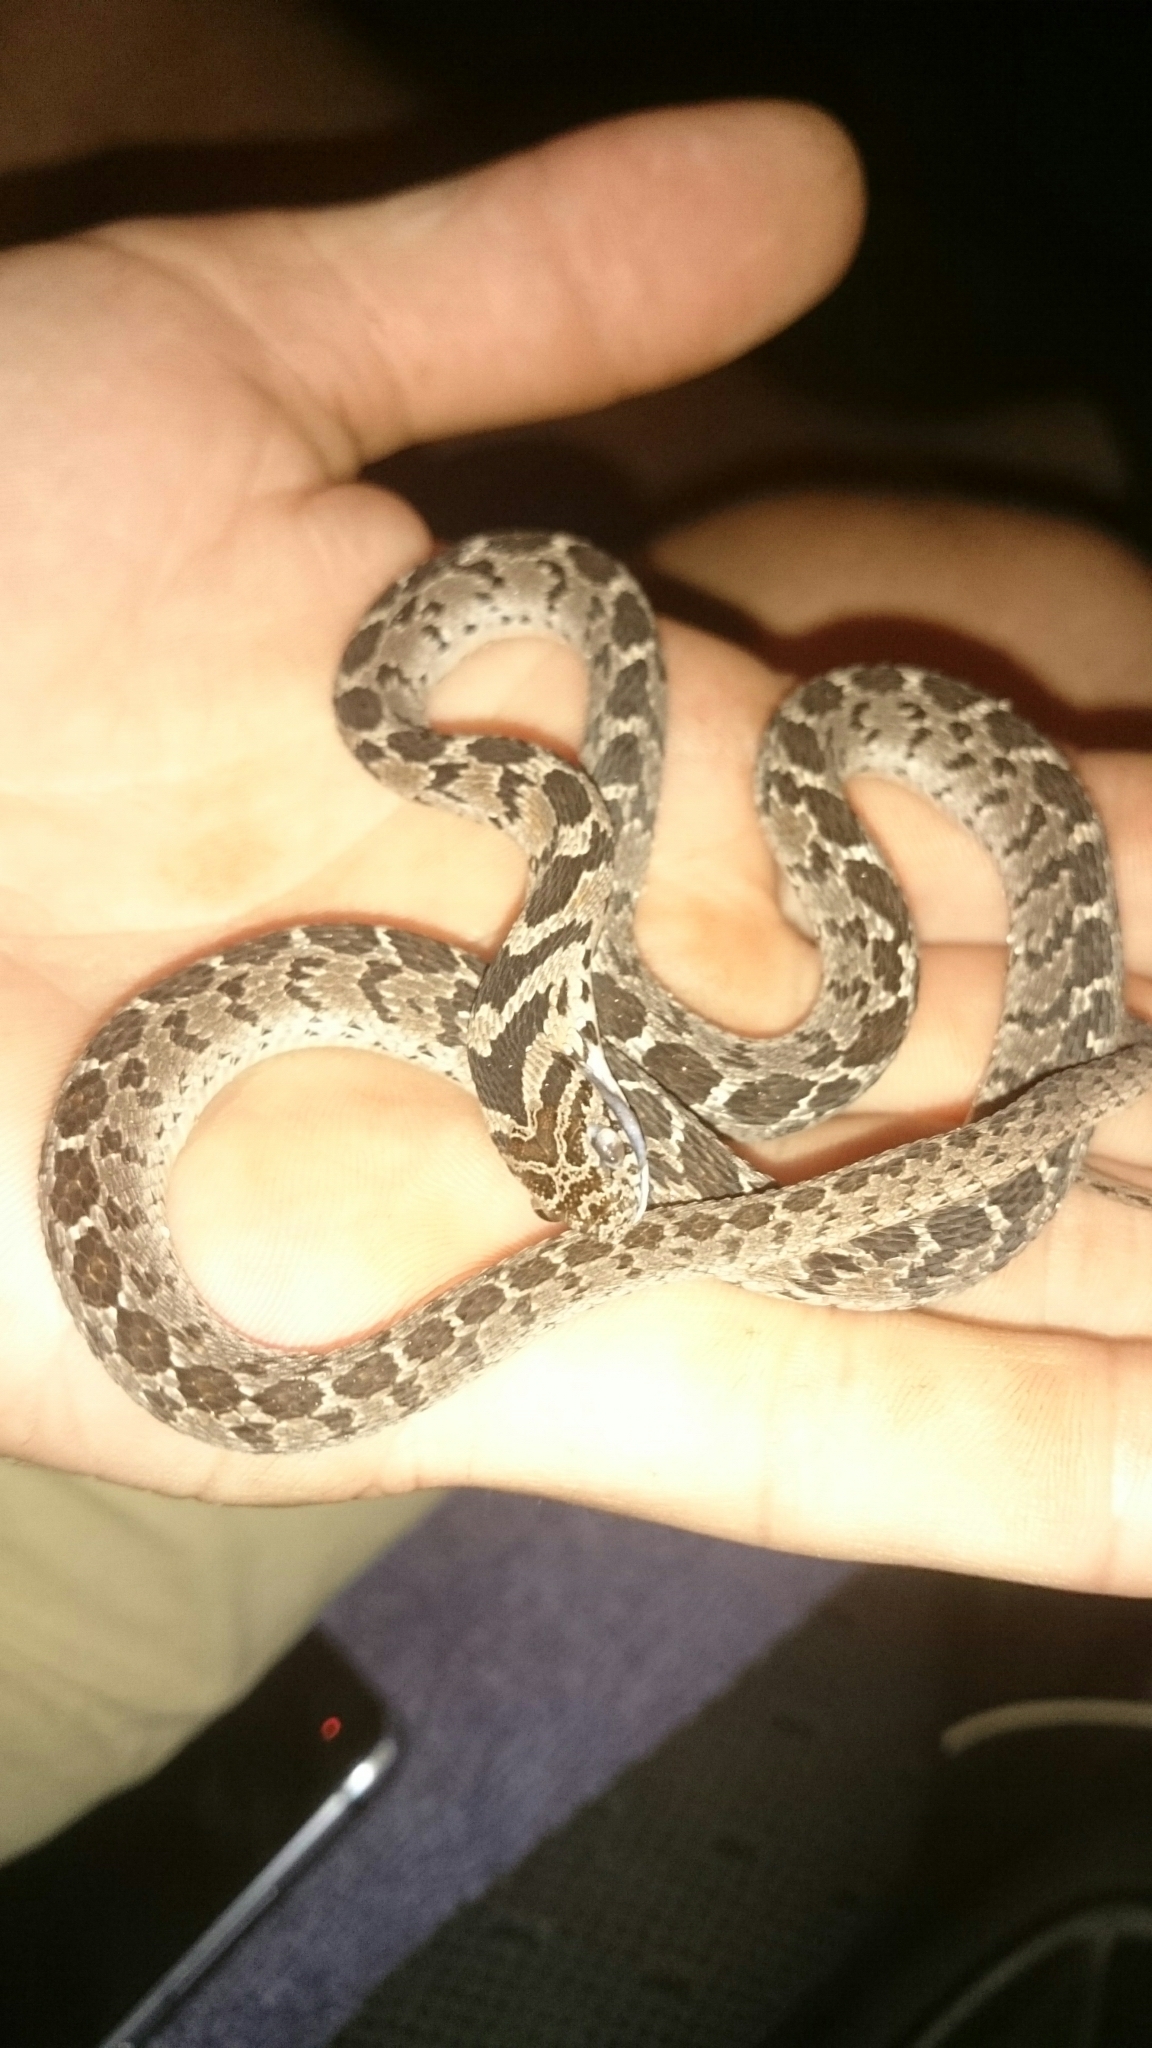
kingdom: Animalia
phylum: Chordata
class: Squamata
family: Colubridae
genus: Dasypeltis
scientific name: Dasypeltis scabra
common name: Common egg eater
